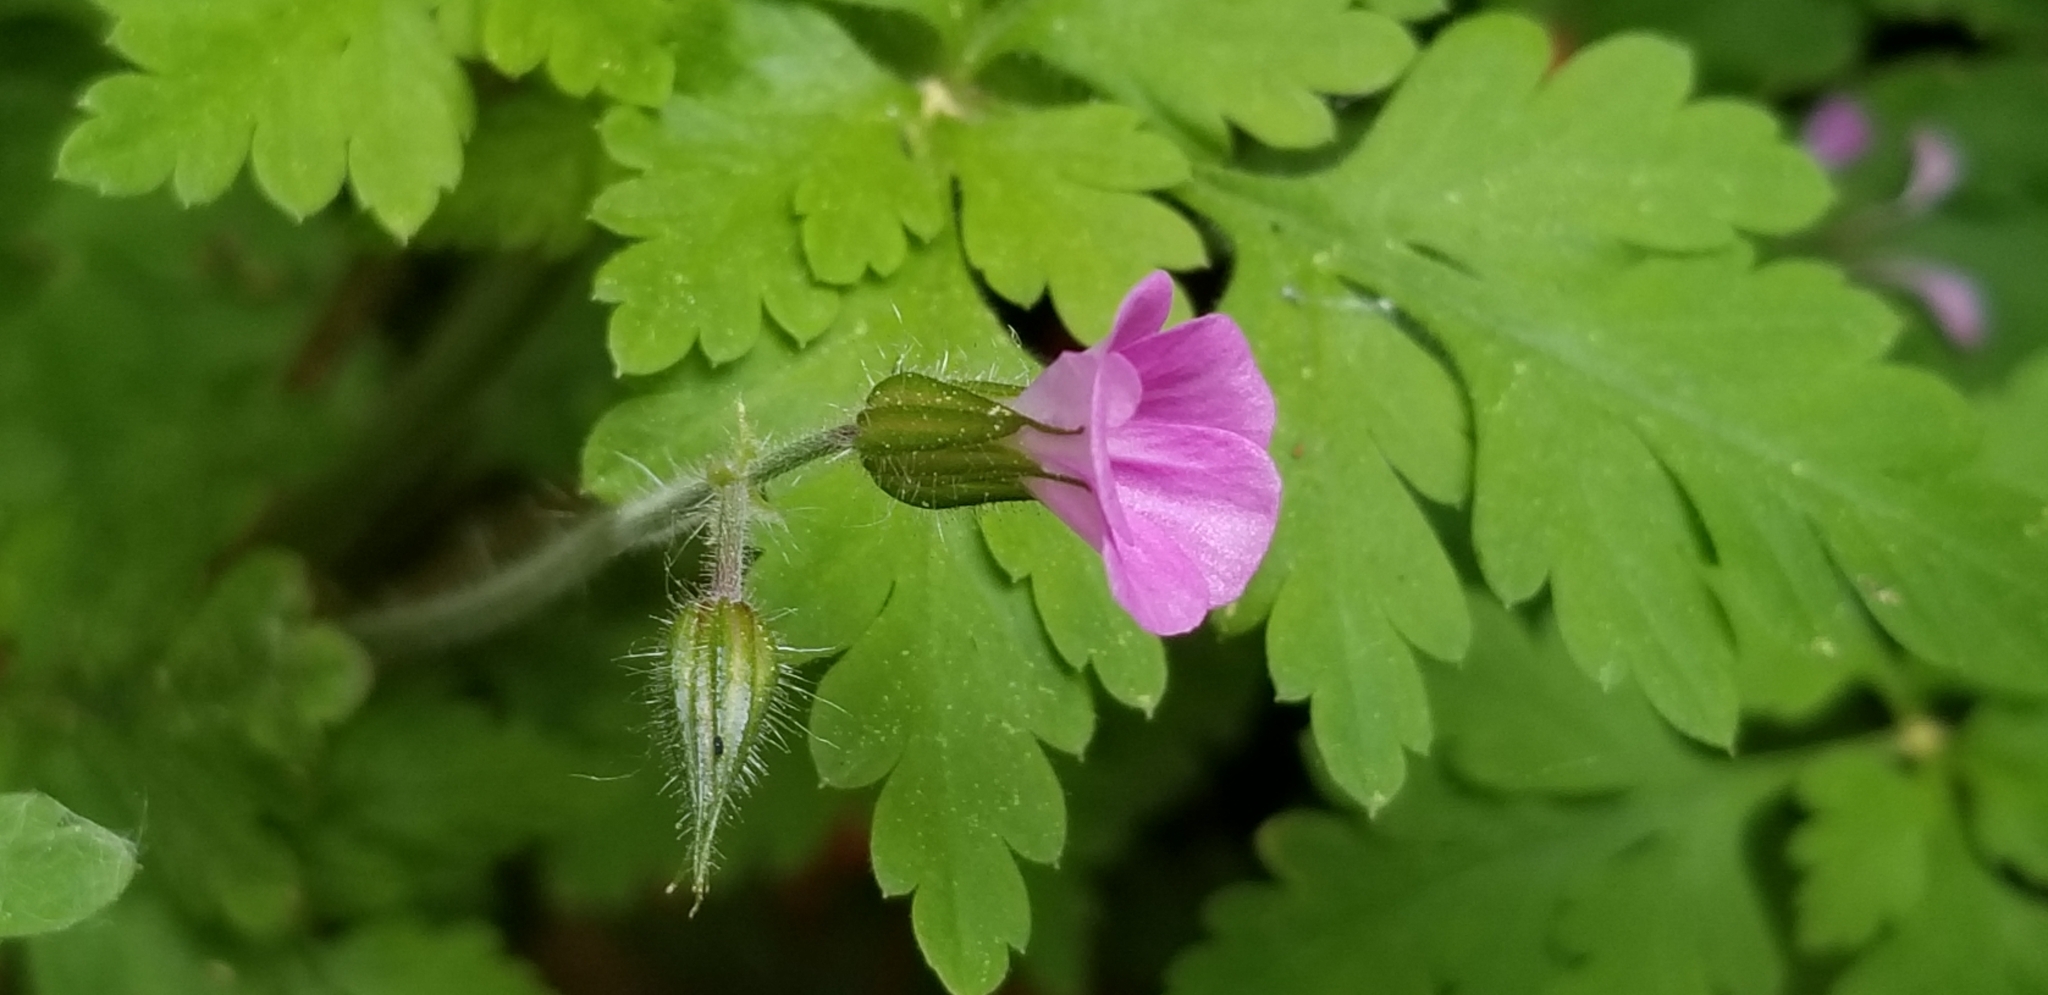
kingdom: Plantae
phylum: Tracheophyta
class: Magnoliopsida
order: Geraniales
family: Geraniaceae
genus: Geranium
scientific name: Geranium robertianum
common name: Herb-robert
